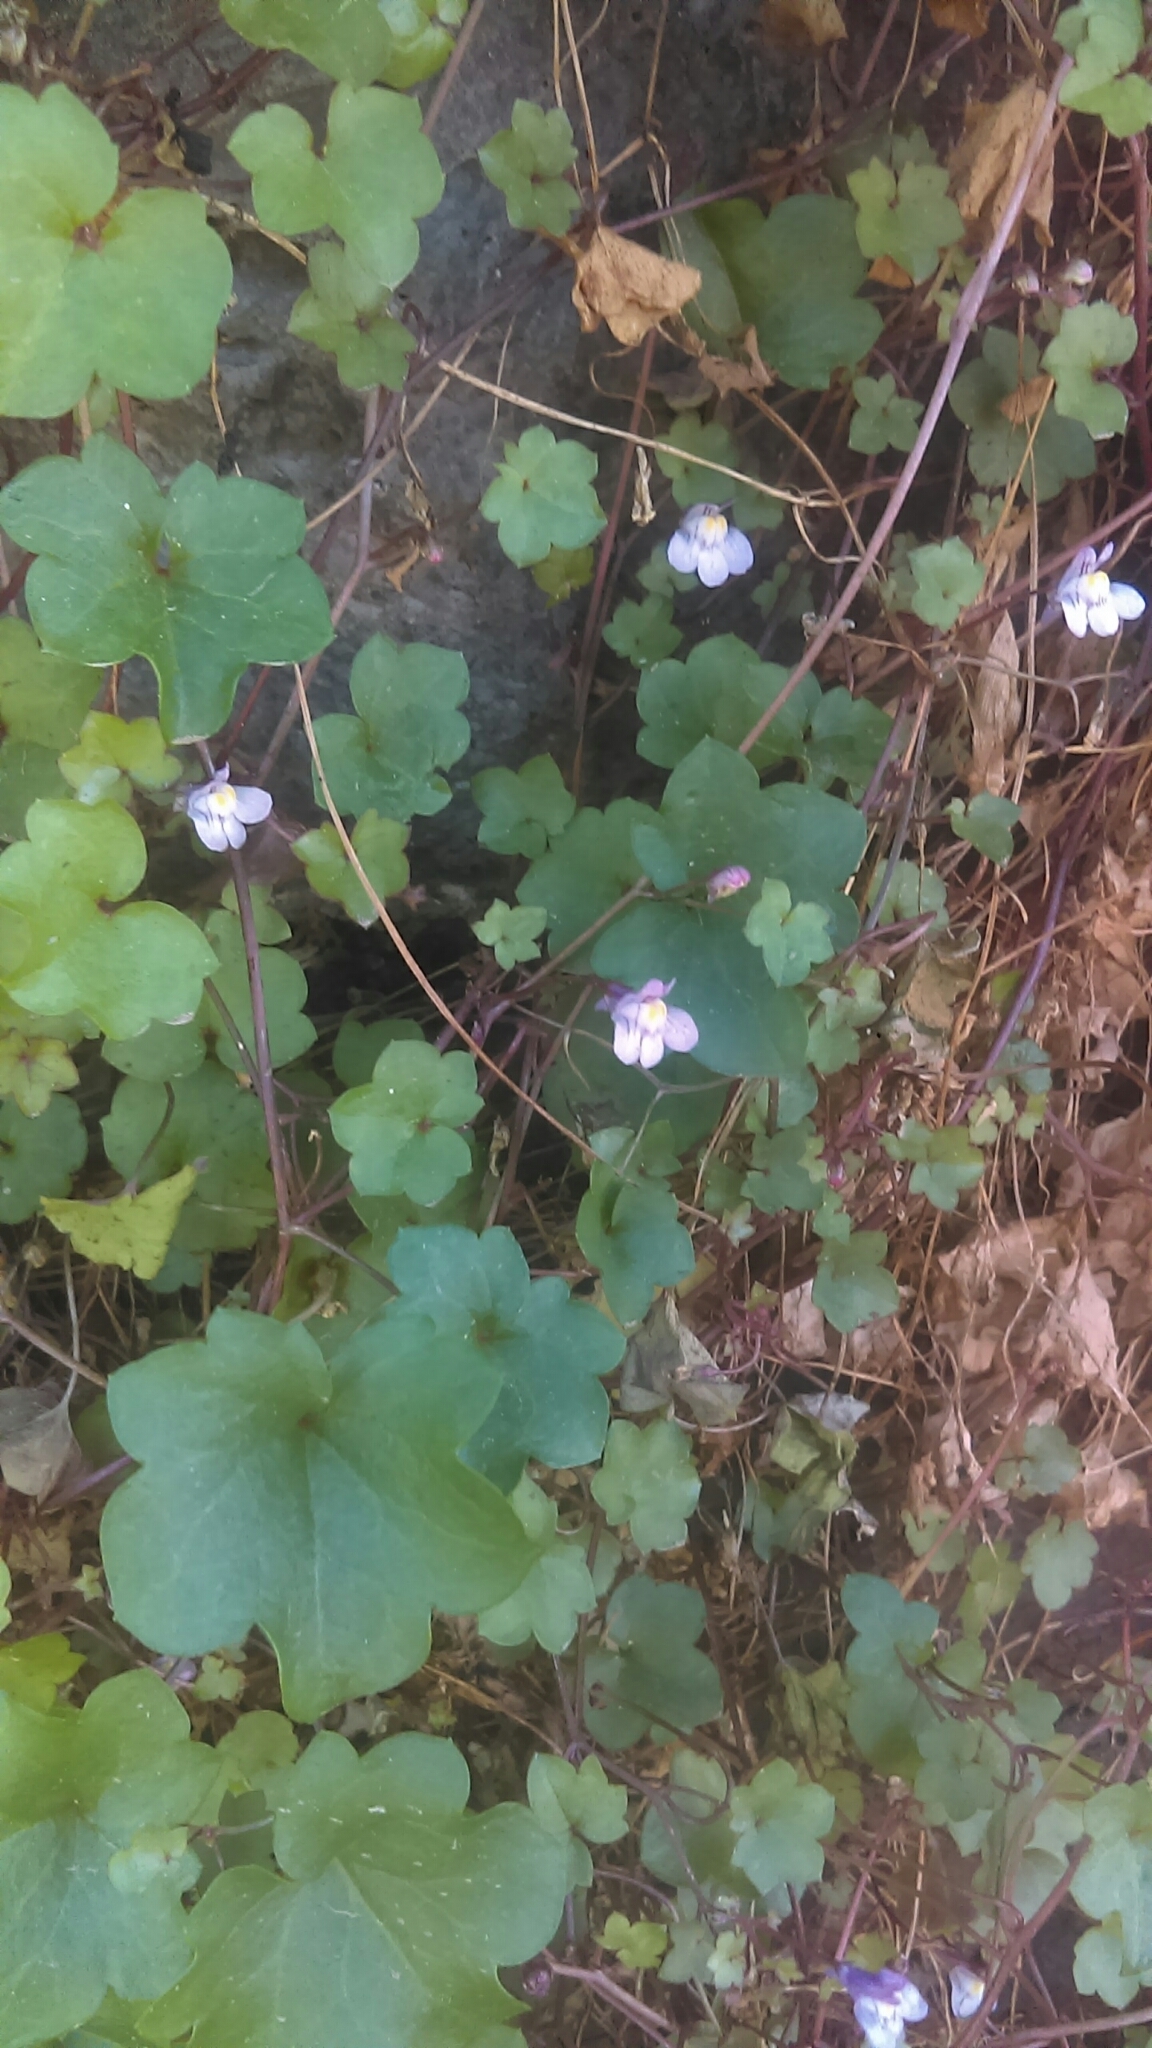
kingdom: Plantae
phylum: Tracheophyta
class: Magnoliopsida
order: Lamiales
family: Plantaginaceae
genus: Cymbalaria
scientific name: Cymbalaria muralis
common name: Ivy-leaved toadflax
